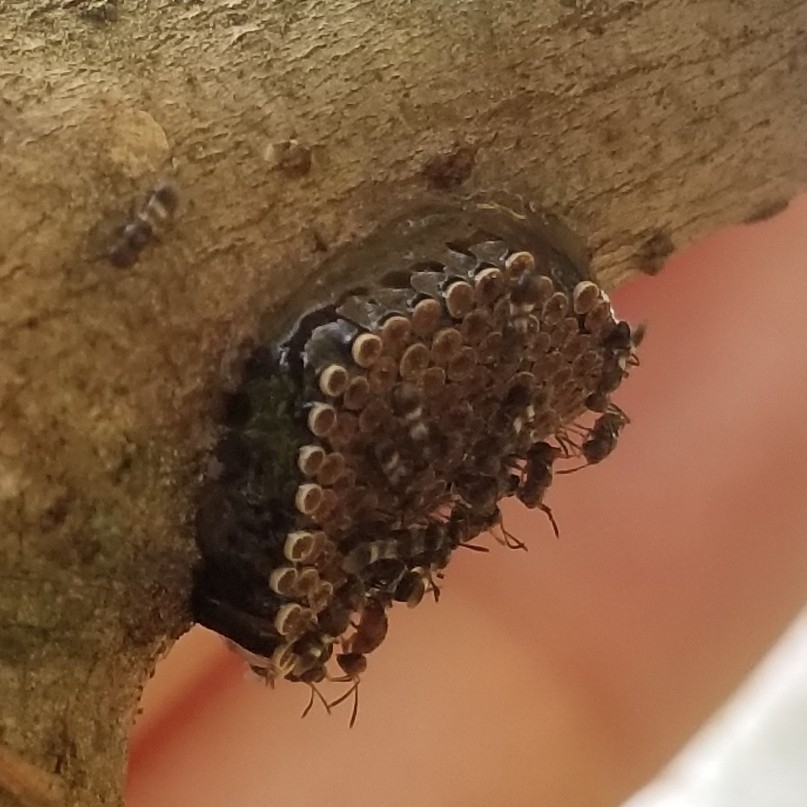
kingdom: Animalia
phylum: Arthropoda
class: Insecta
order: Hemiptera
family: Reduviidae
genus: Arilus
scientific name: Arilus cristatus
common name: North american wheel bug
